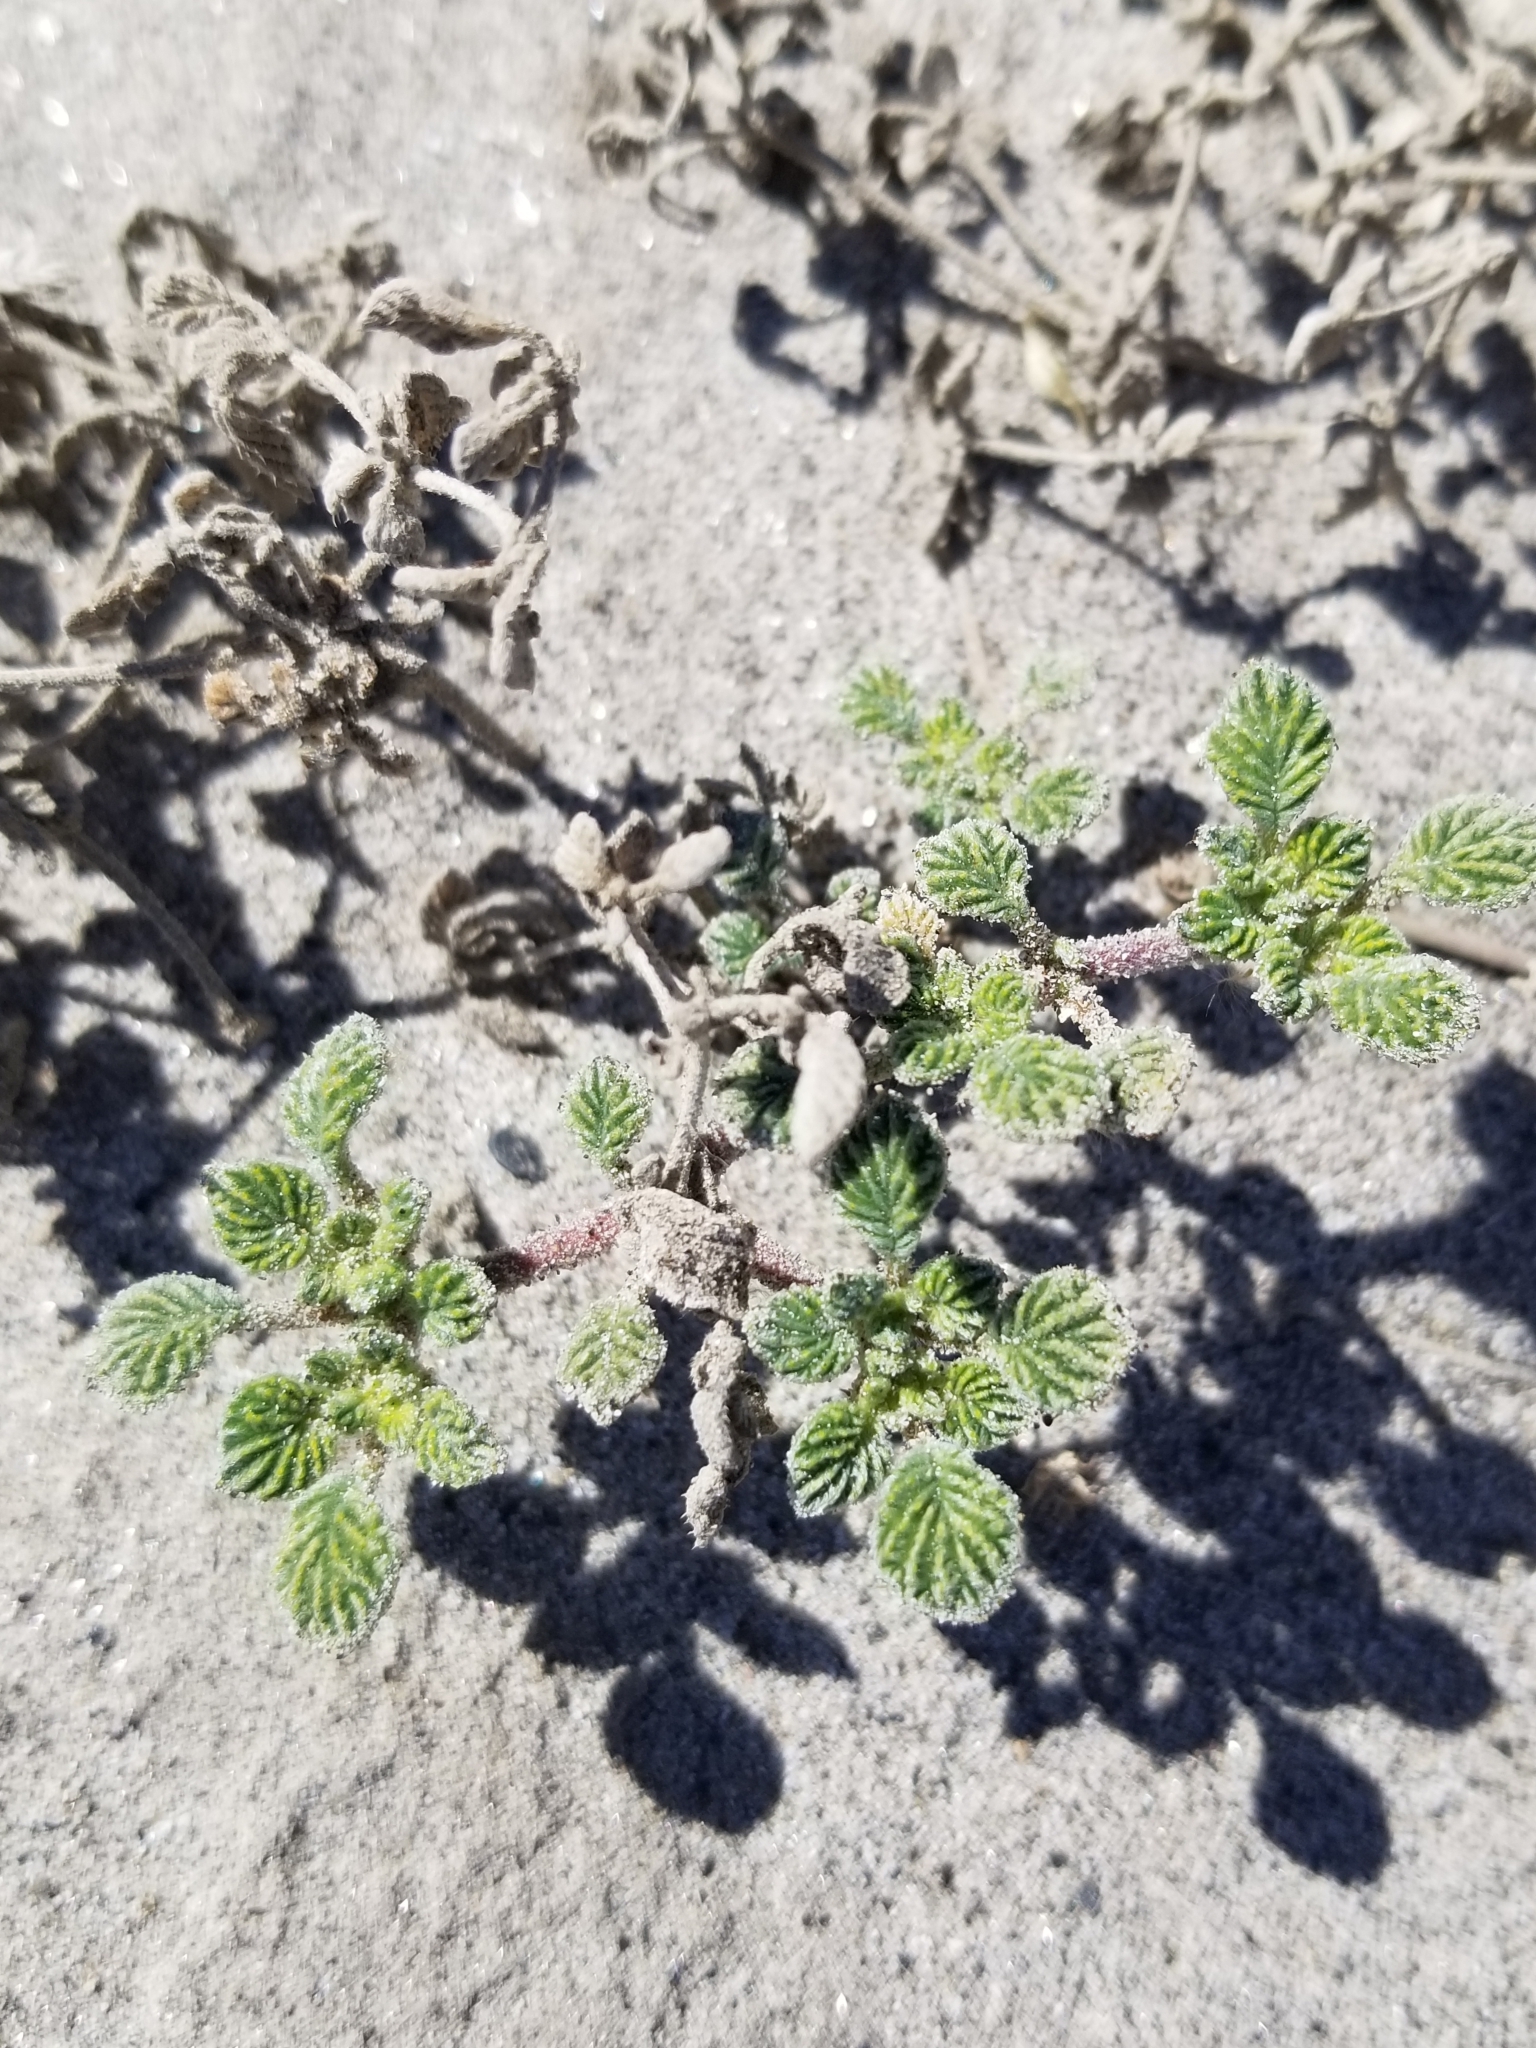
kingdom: Plantae
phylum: Tracheophyta
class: Magnoliopsida
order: Boraginales
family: Ehretiaceae
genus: Tiquilia
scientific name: Tiquilia plicata
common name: Fan-leaf tiquilia
